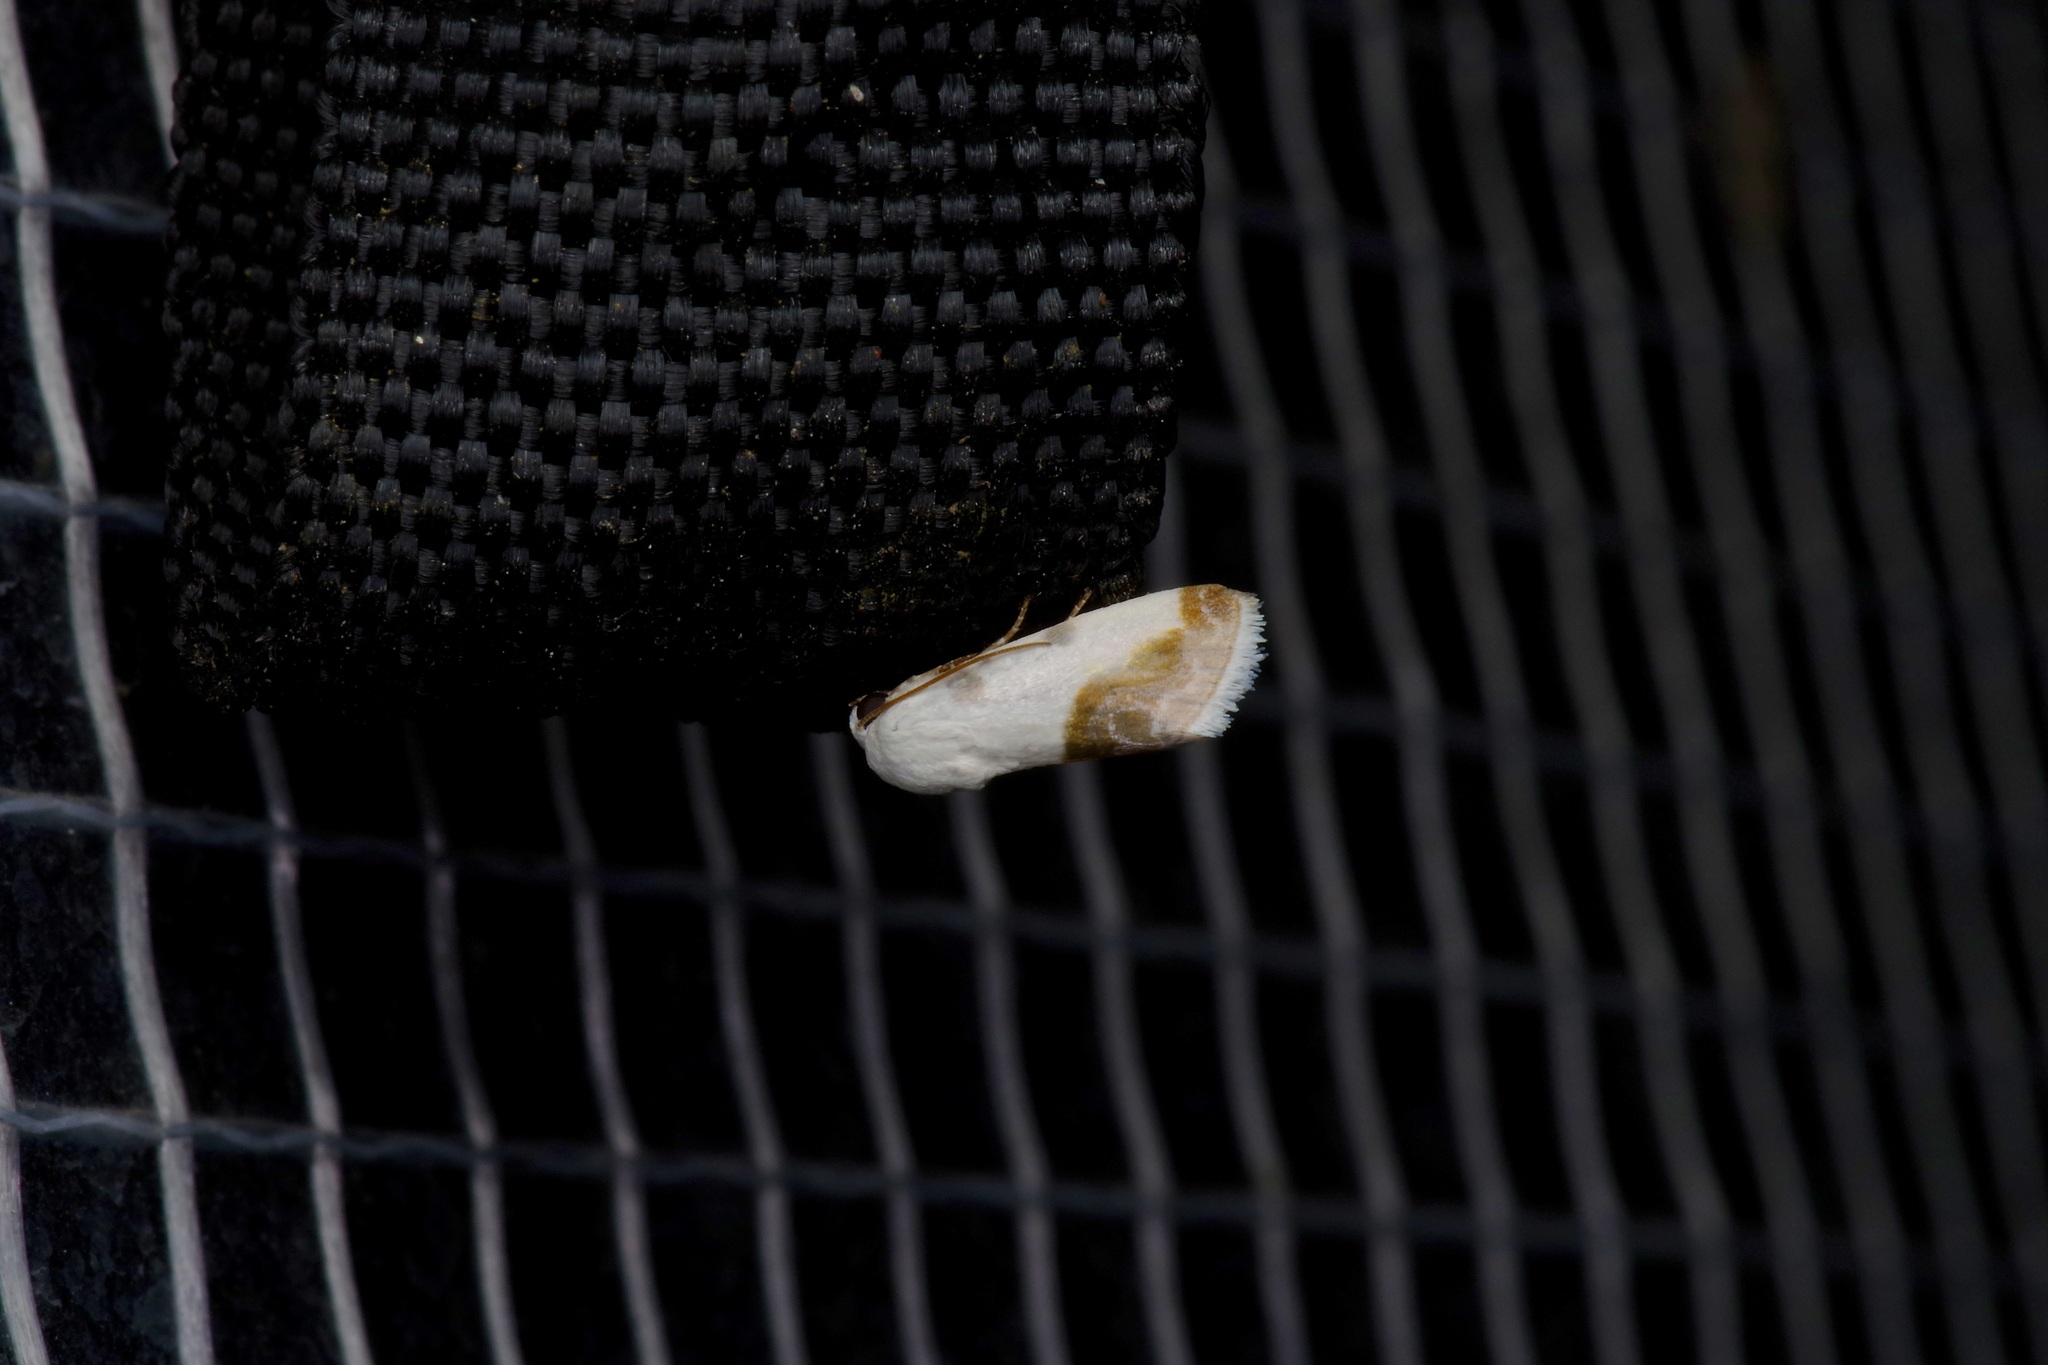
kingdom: Animalia
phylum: Arthropoda
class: Insecta
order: Lepidoptera
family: Noctuidae
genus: Acontia
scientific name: Acontia cretata
